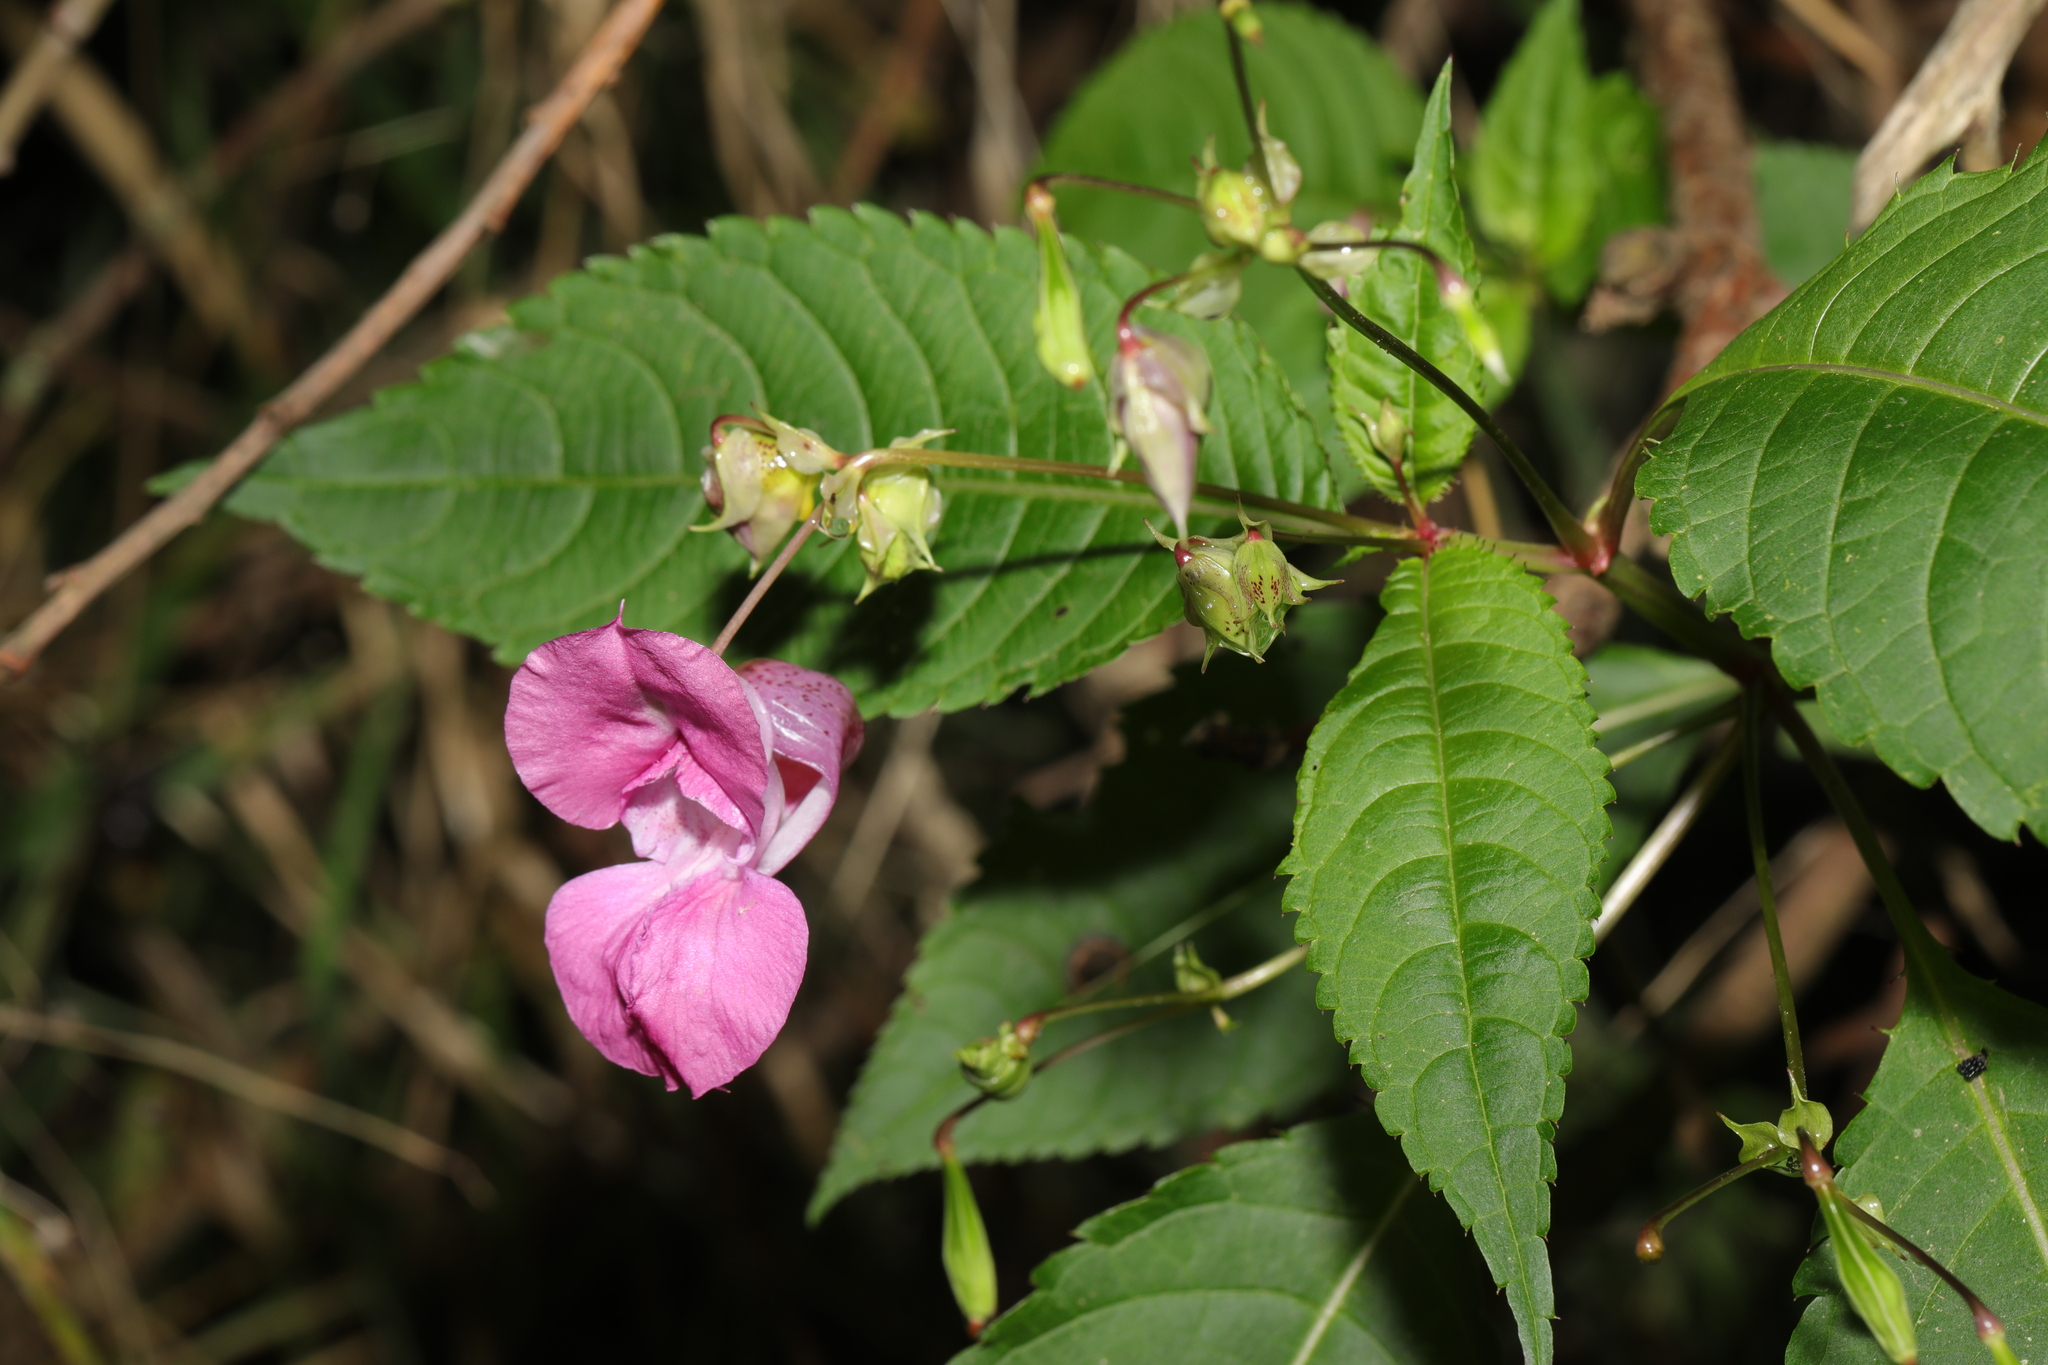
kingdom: Plantae
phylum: Tracheophyta
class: Magnoliopsida
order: Ericales
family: Balsaminaceae
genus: Impatiens
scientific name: Impatiens glandulifera
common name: Himalayan balsam
